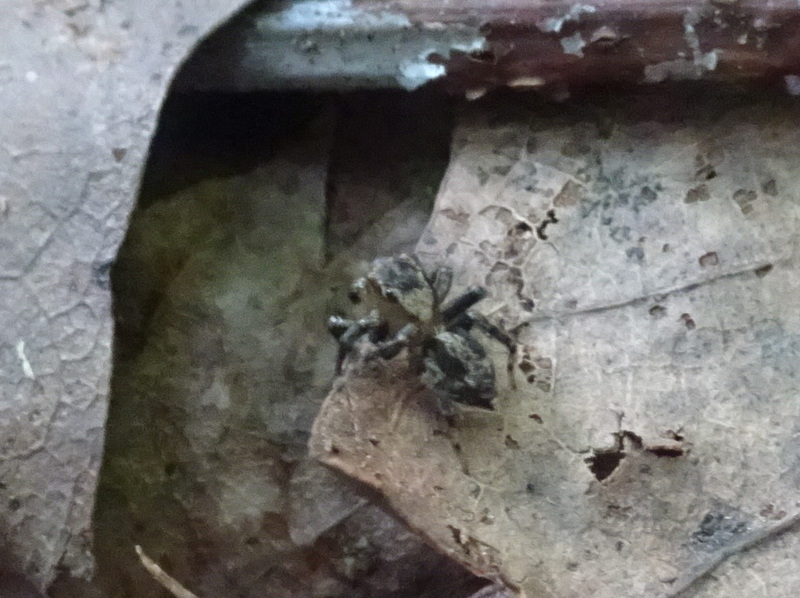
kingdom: Animalia
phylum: Arthropoda
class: Arachnida
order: Araneae
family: Salticidae
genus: Naphrys
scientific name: Naphrys pulex
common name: Flea jumping spider
